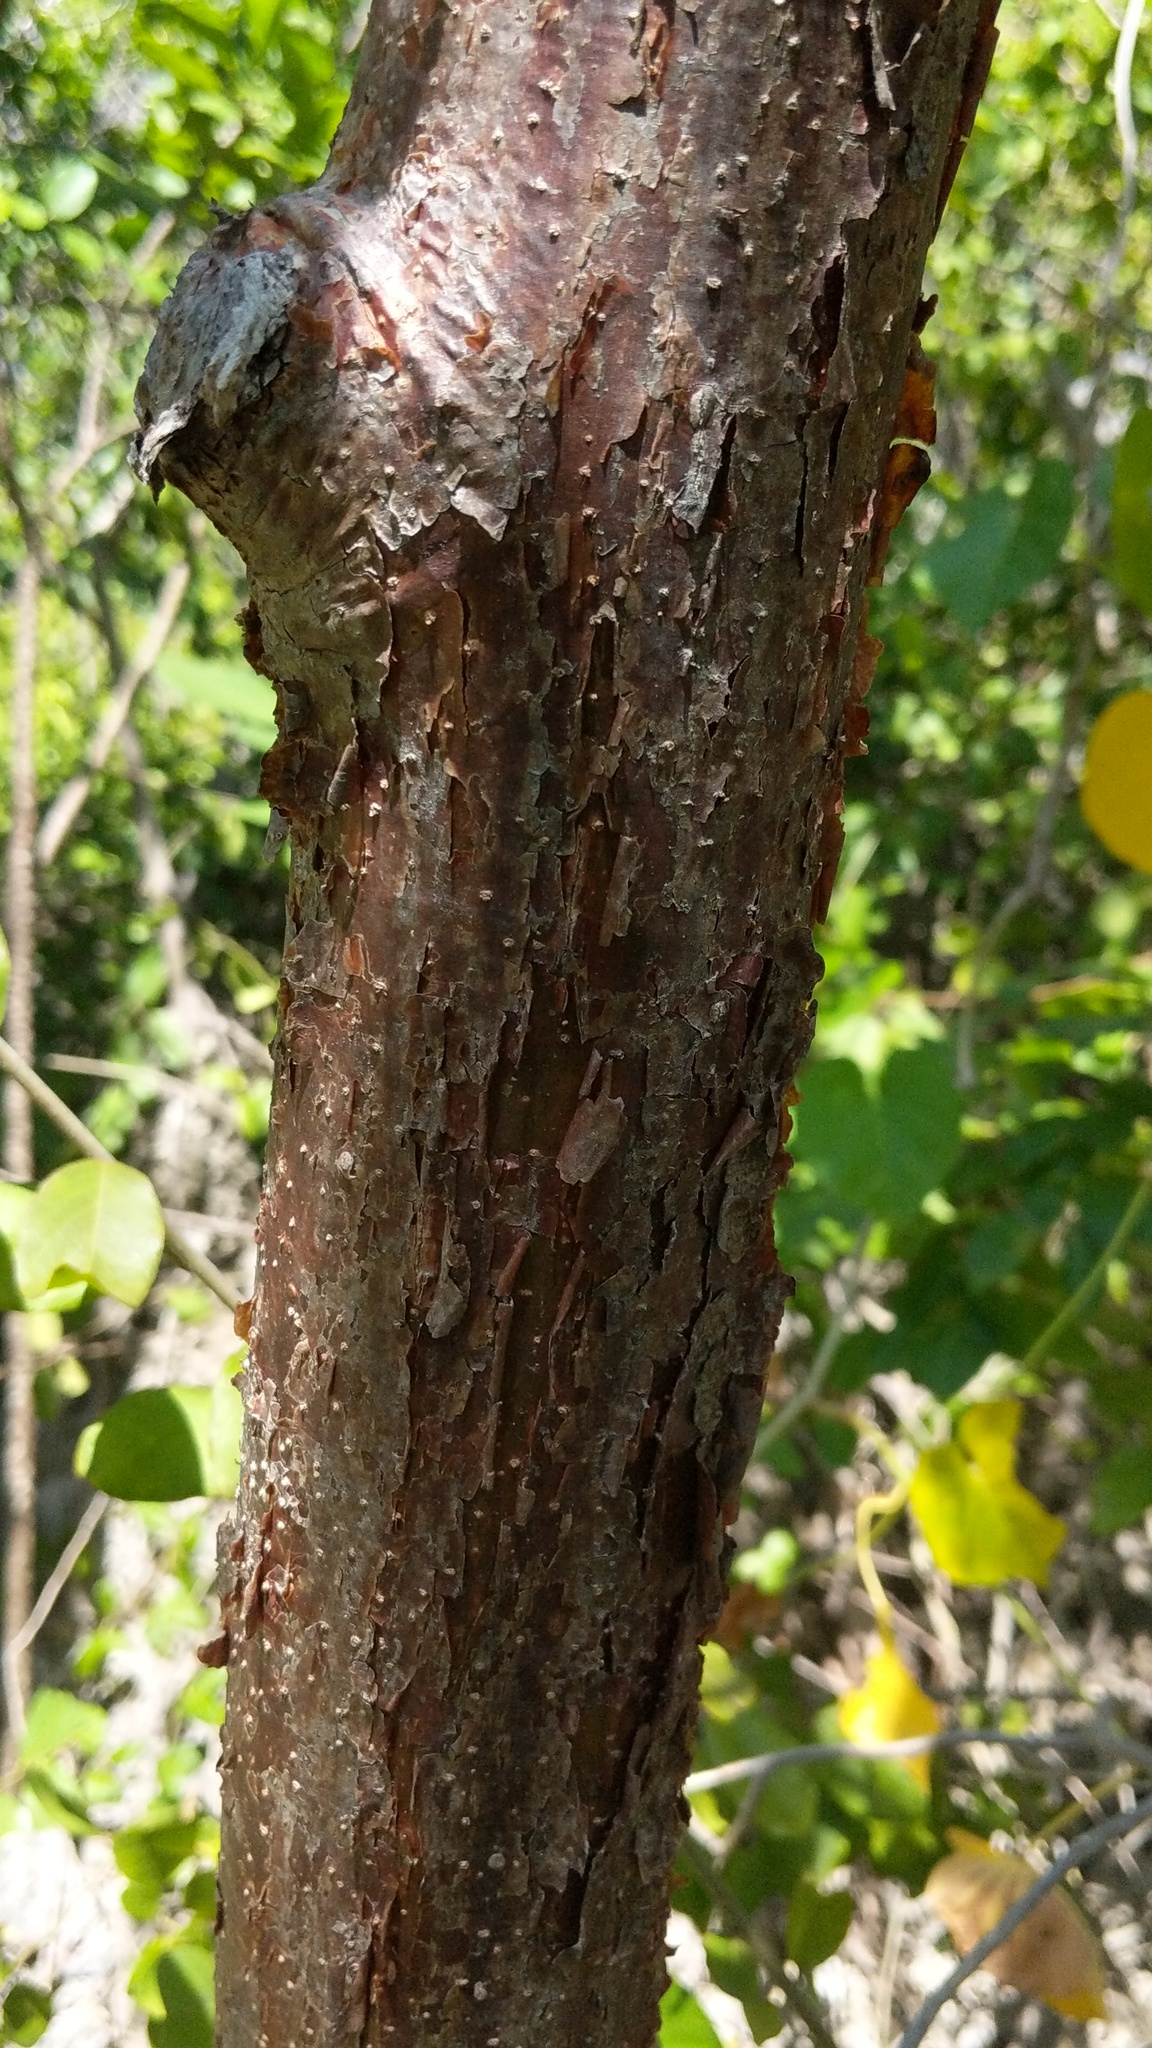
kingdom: Plantae
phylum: Tracheophyta
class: Magnoliopsida
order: Sapindales
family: Burseraceae
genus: Bursera
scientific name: Bursera simaruba
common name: Turpentine tree
